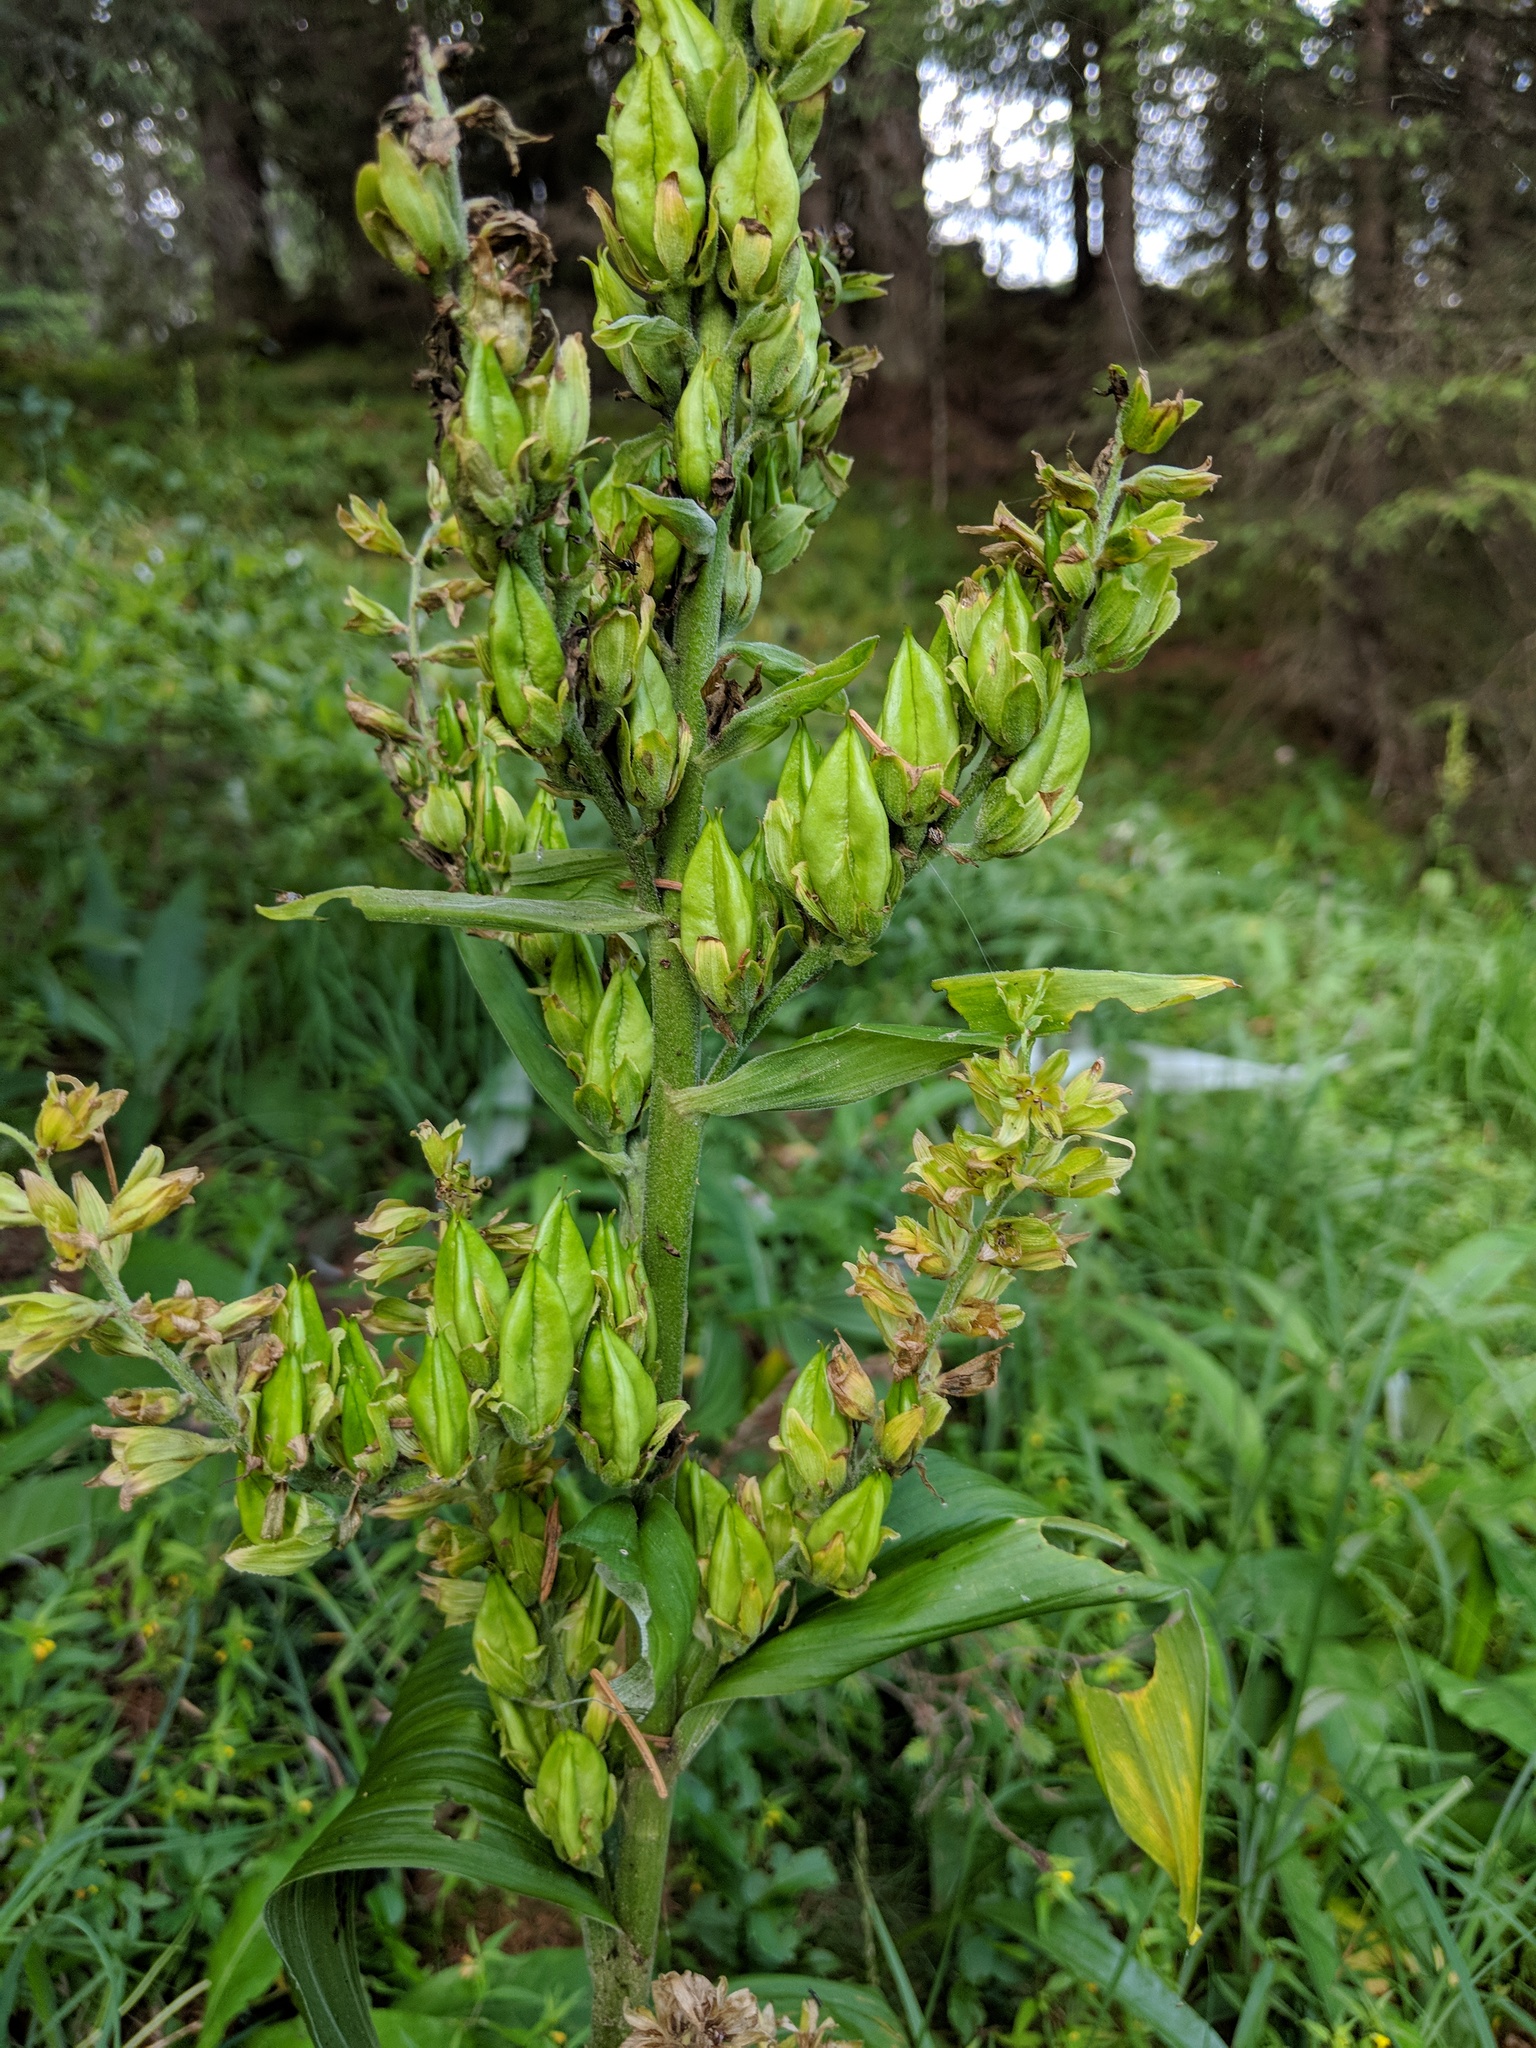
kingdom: Plantae
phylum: Tracheophyta
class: Liliopsida
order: Liliales
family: Melanthiaceae
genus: Veratrum
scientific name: Veratrum lobelianum
